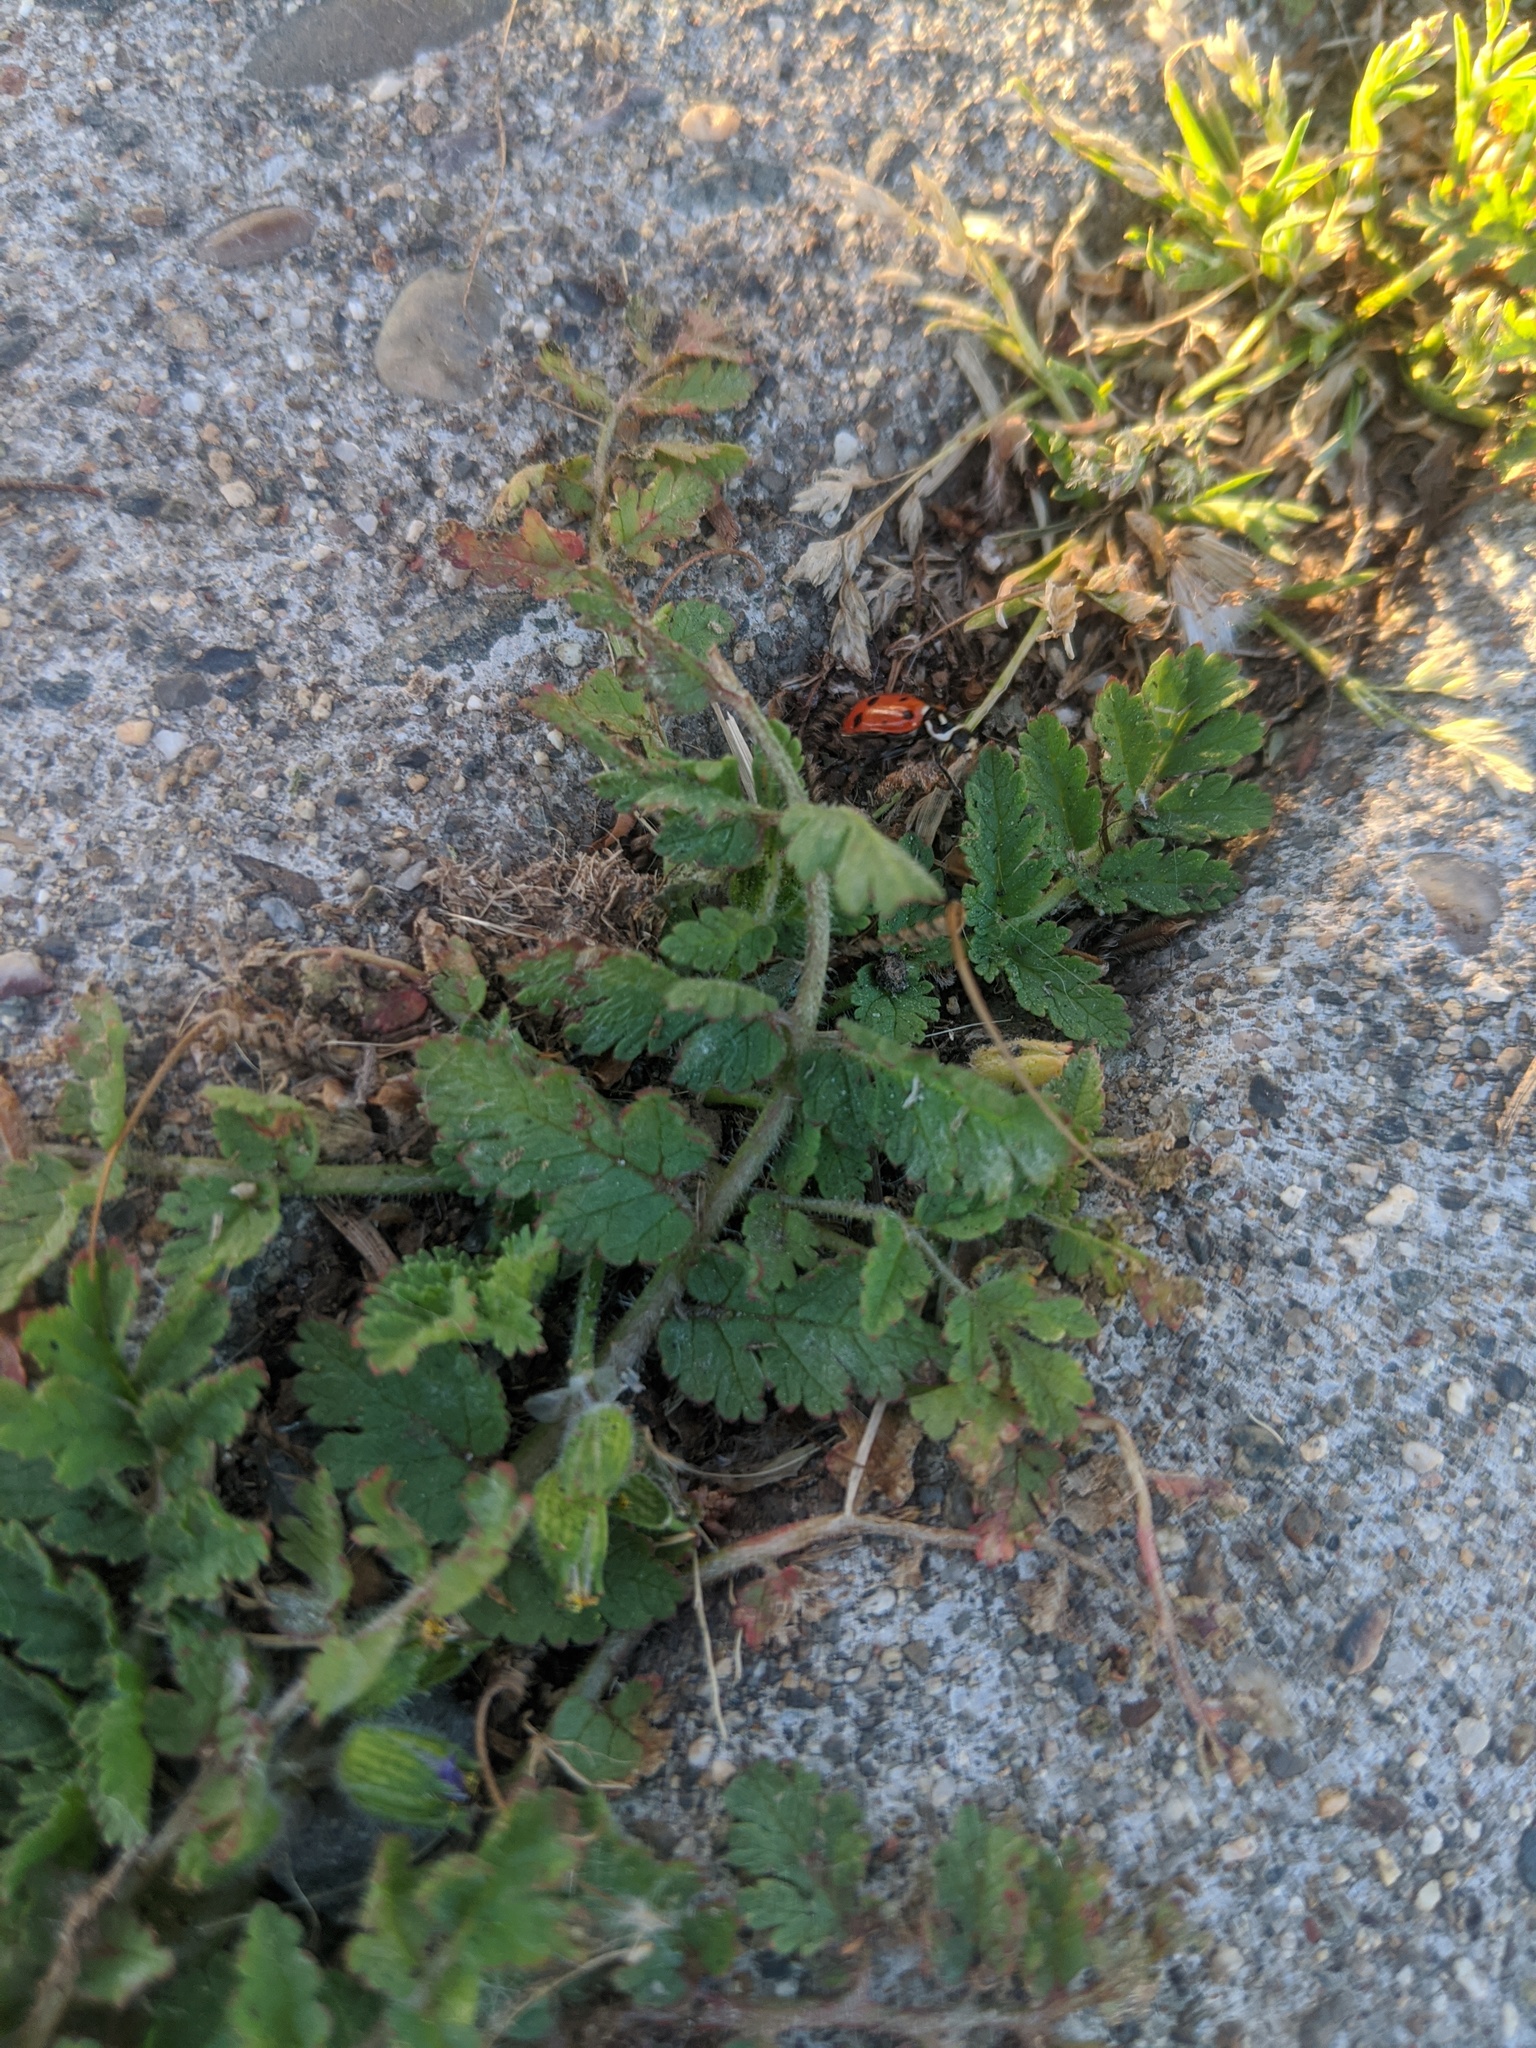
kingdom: Plantae
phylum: Tracheophyta
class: Magnoliopsida
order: Geraniales
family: Geraniaceae
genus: Erodium
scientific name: Erodium
